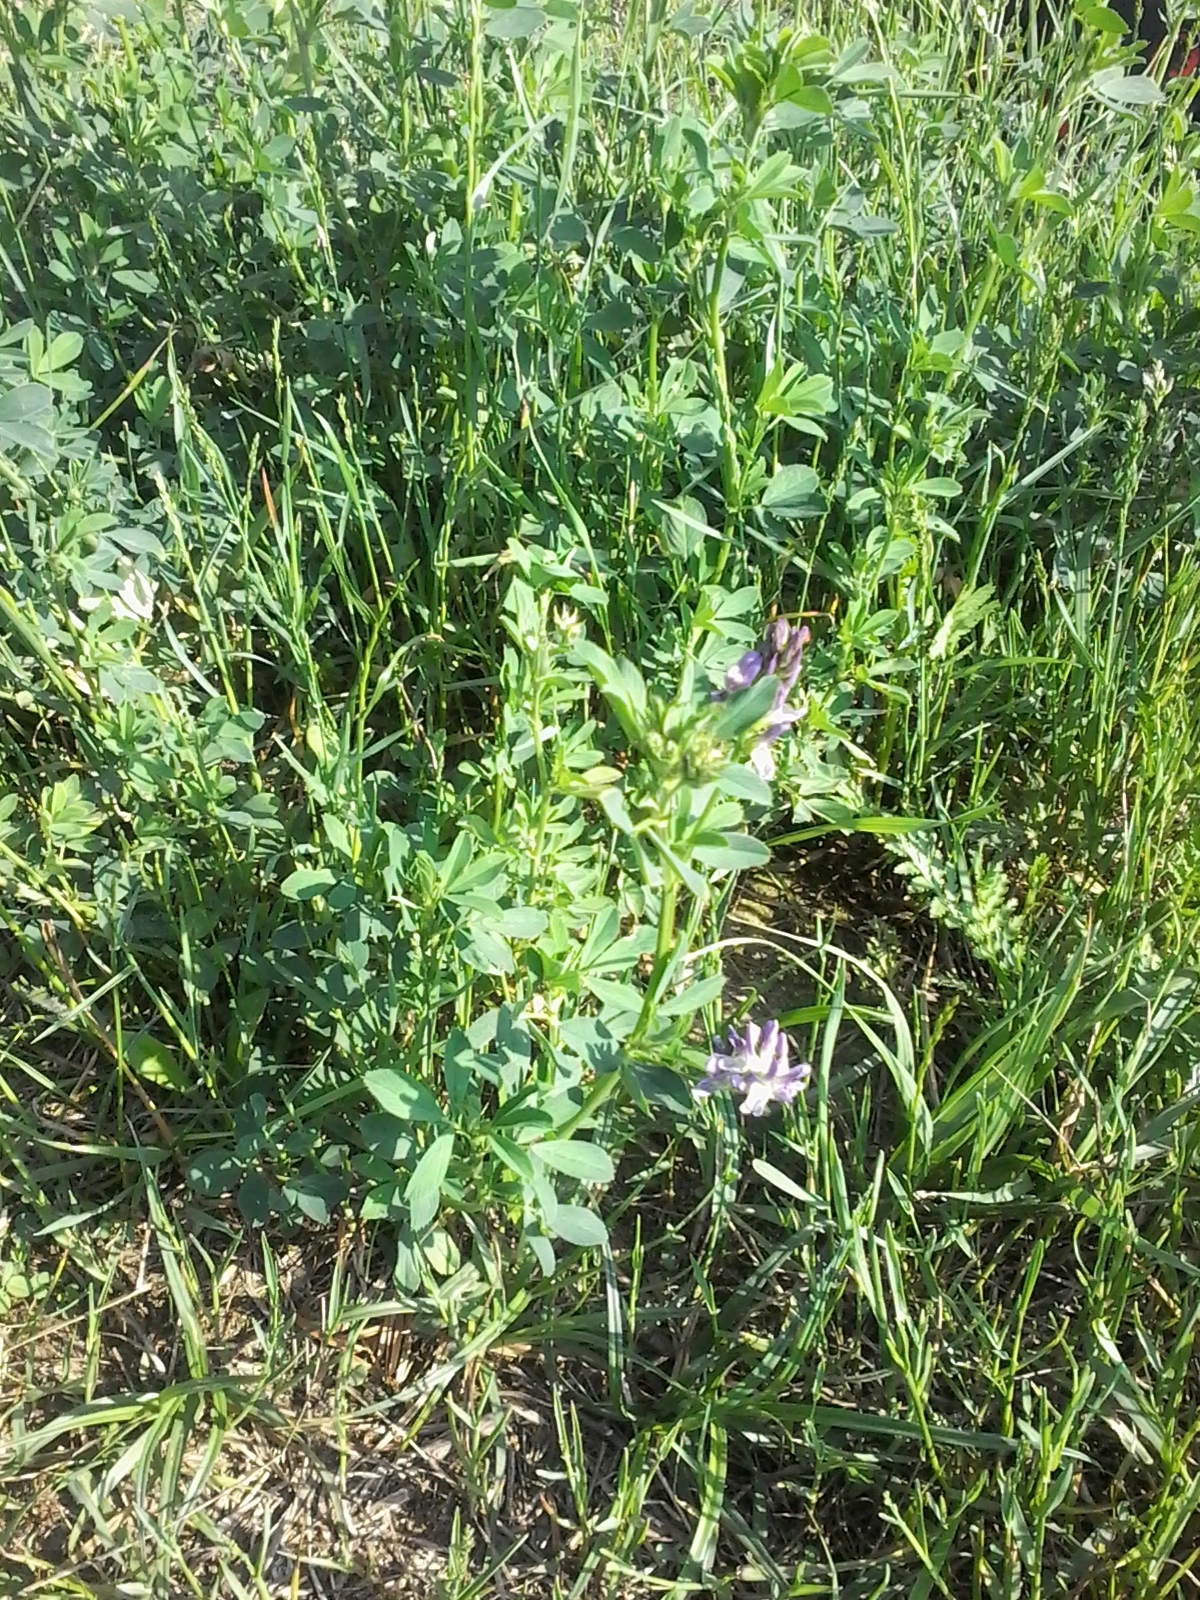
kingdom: Plantae
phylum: Tracheophyta
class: Magnoliopsida
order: Fabales
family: Fabaceae
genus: Medicago
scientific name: Medicago varia
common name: Sand lucerne
